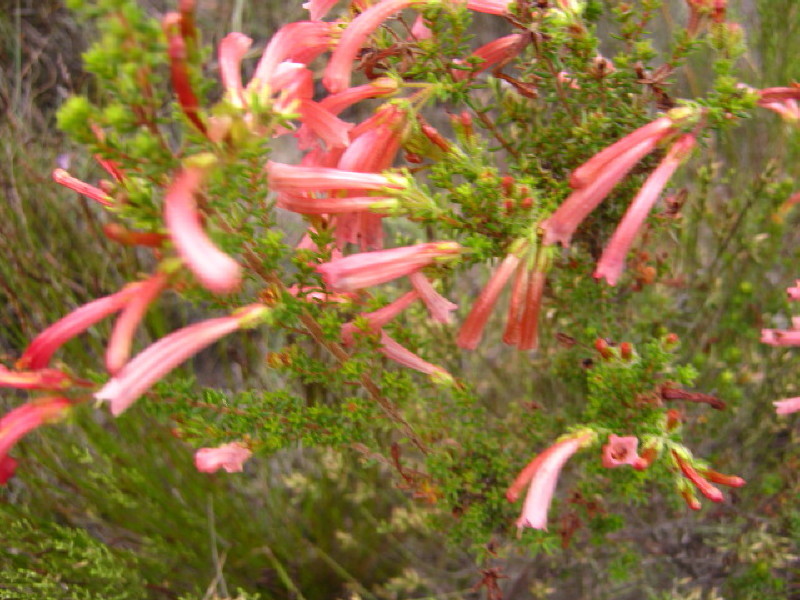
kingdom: Plantae
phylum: Tracheophyta
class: Magnoliopsida
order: Ericales
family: Ericaceae
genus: Erica
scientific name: Erica glandulosa
